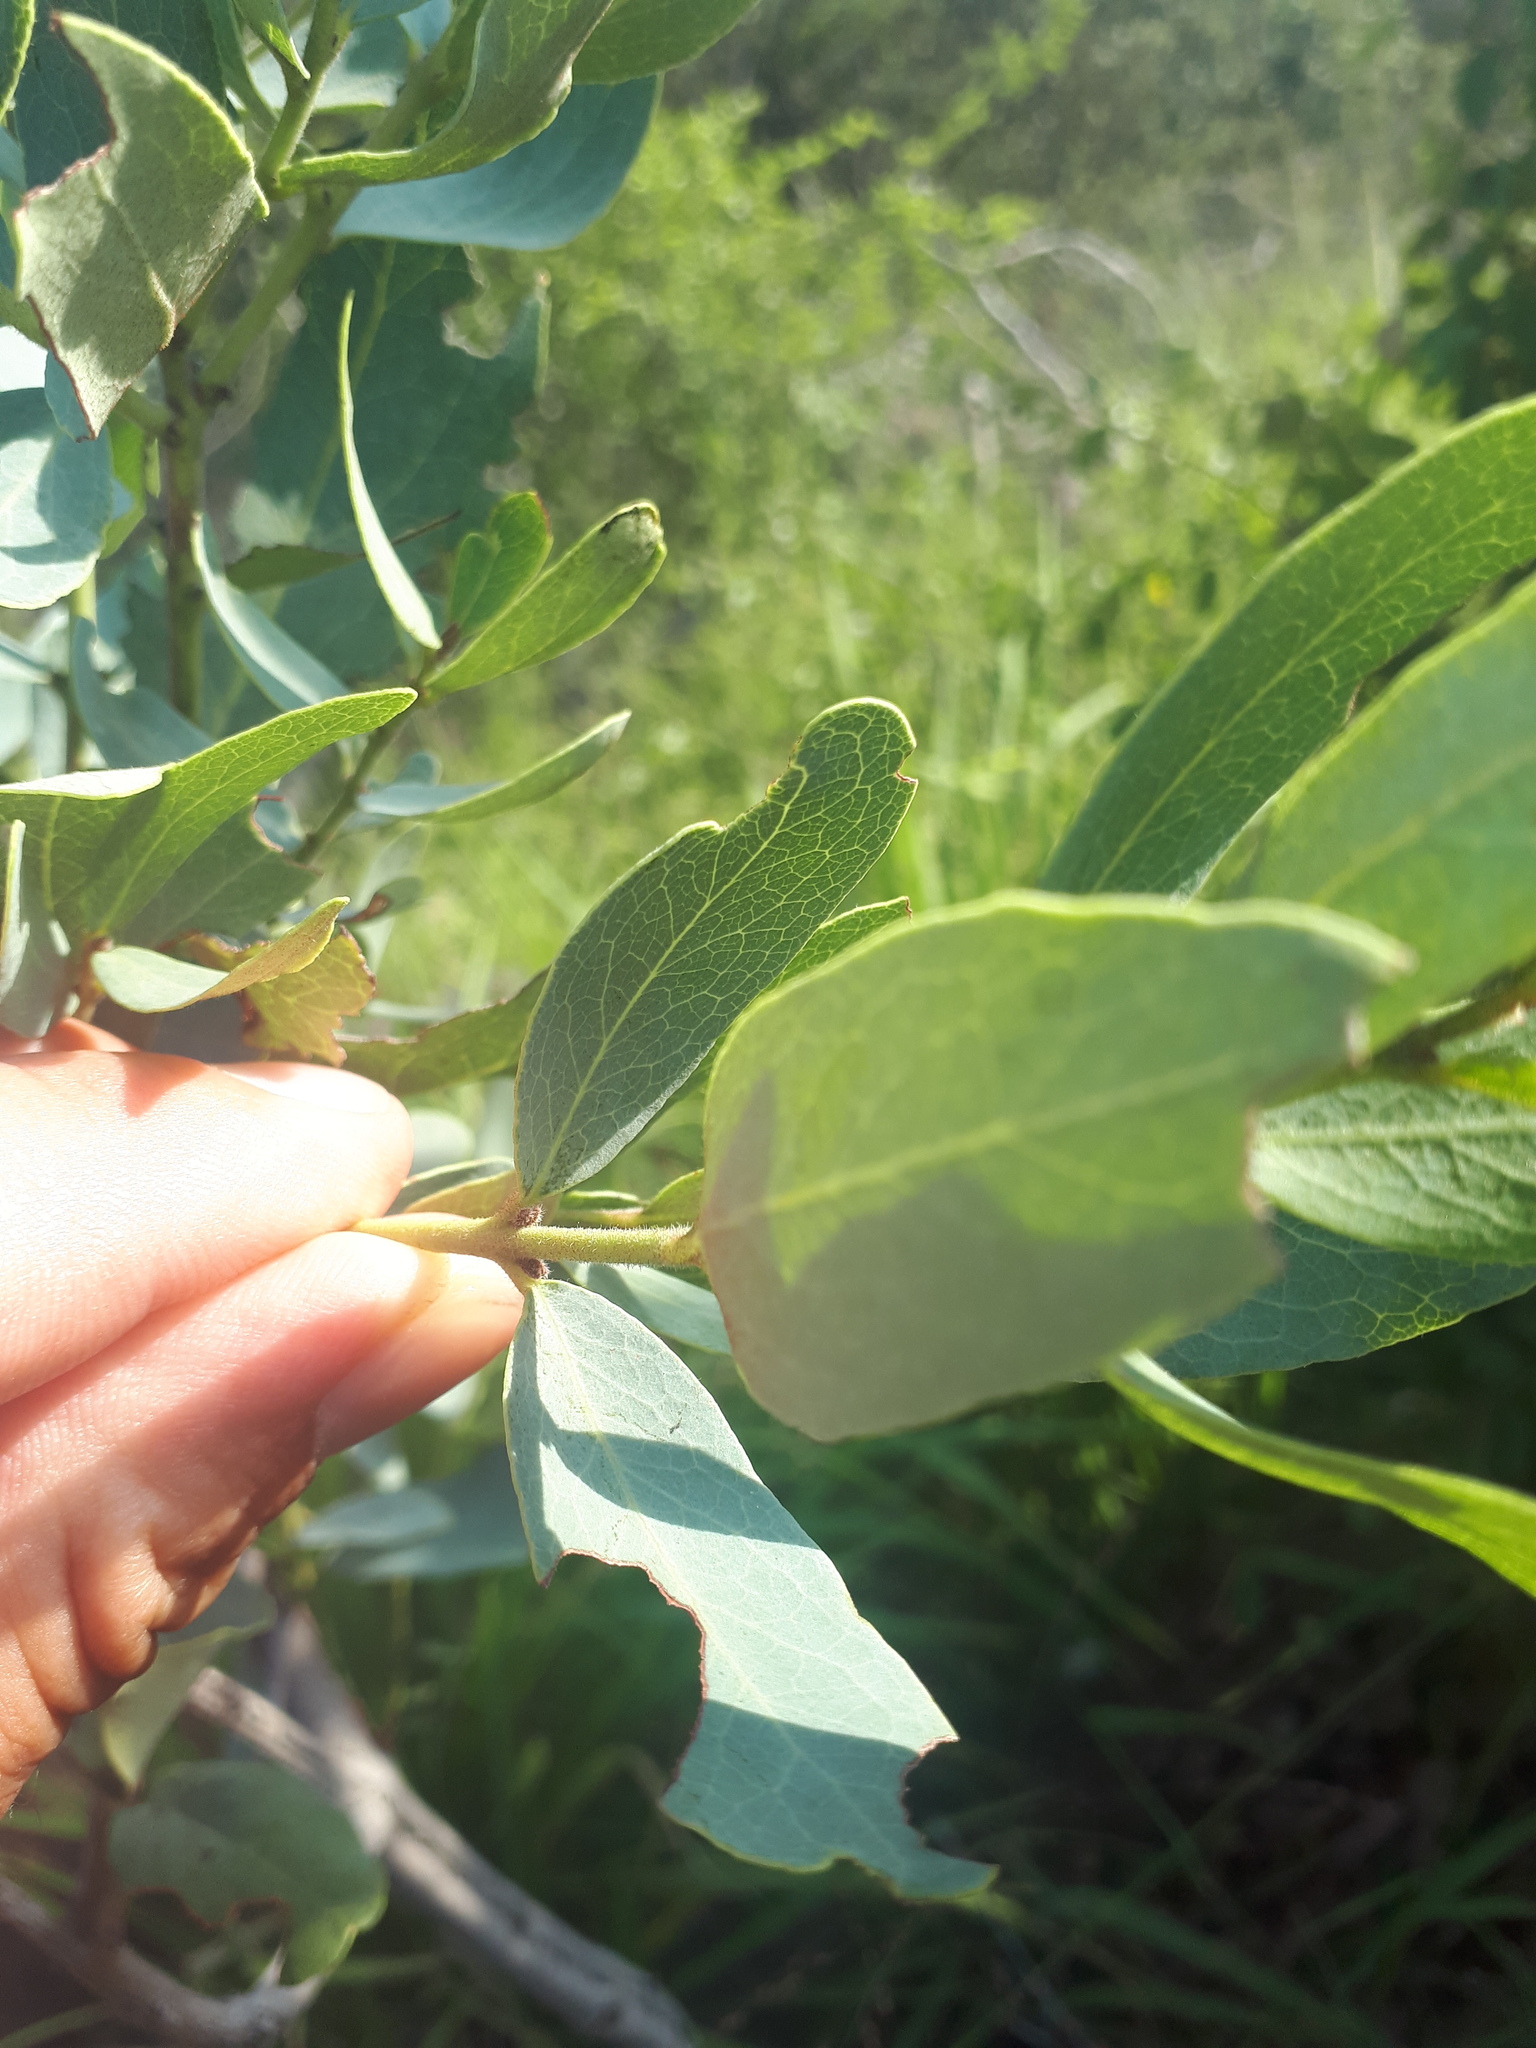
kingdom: Plantae
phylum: Tracheophyta
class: Magnoliopsida
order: Ericales
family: Ebenaceae
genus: Euclea
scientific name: Euclea crispa
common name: Blue guarri
